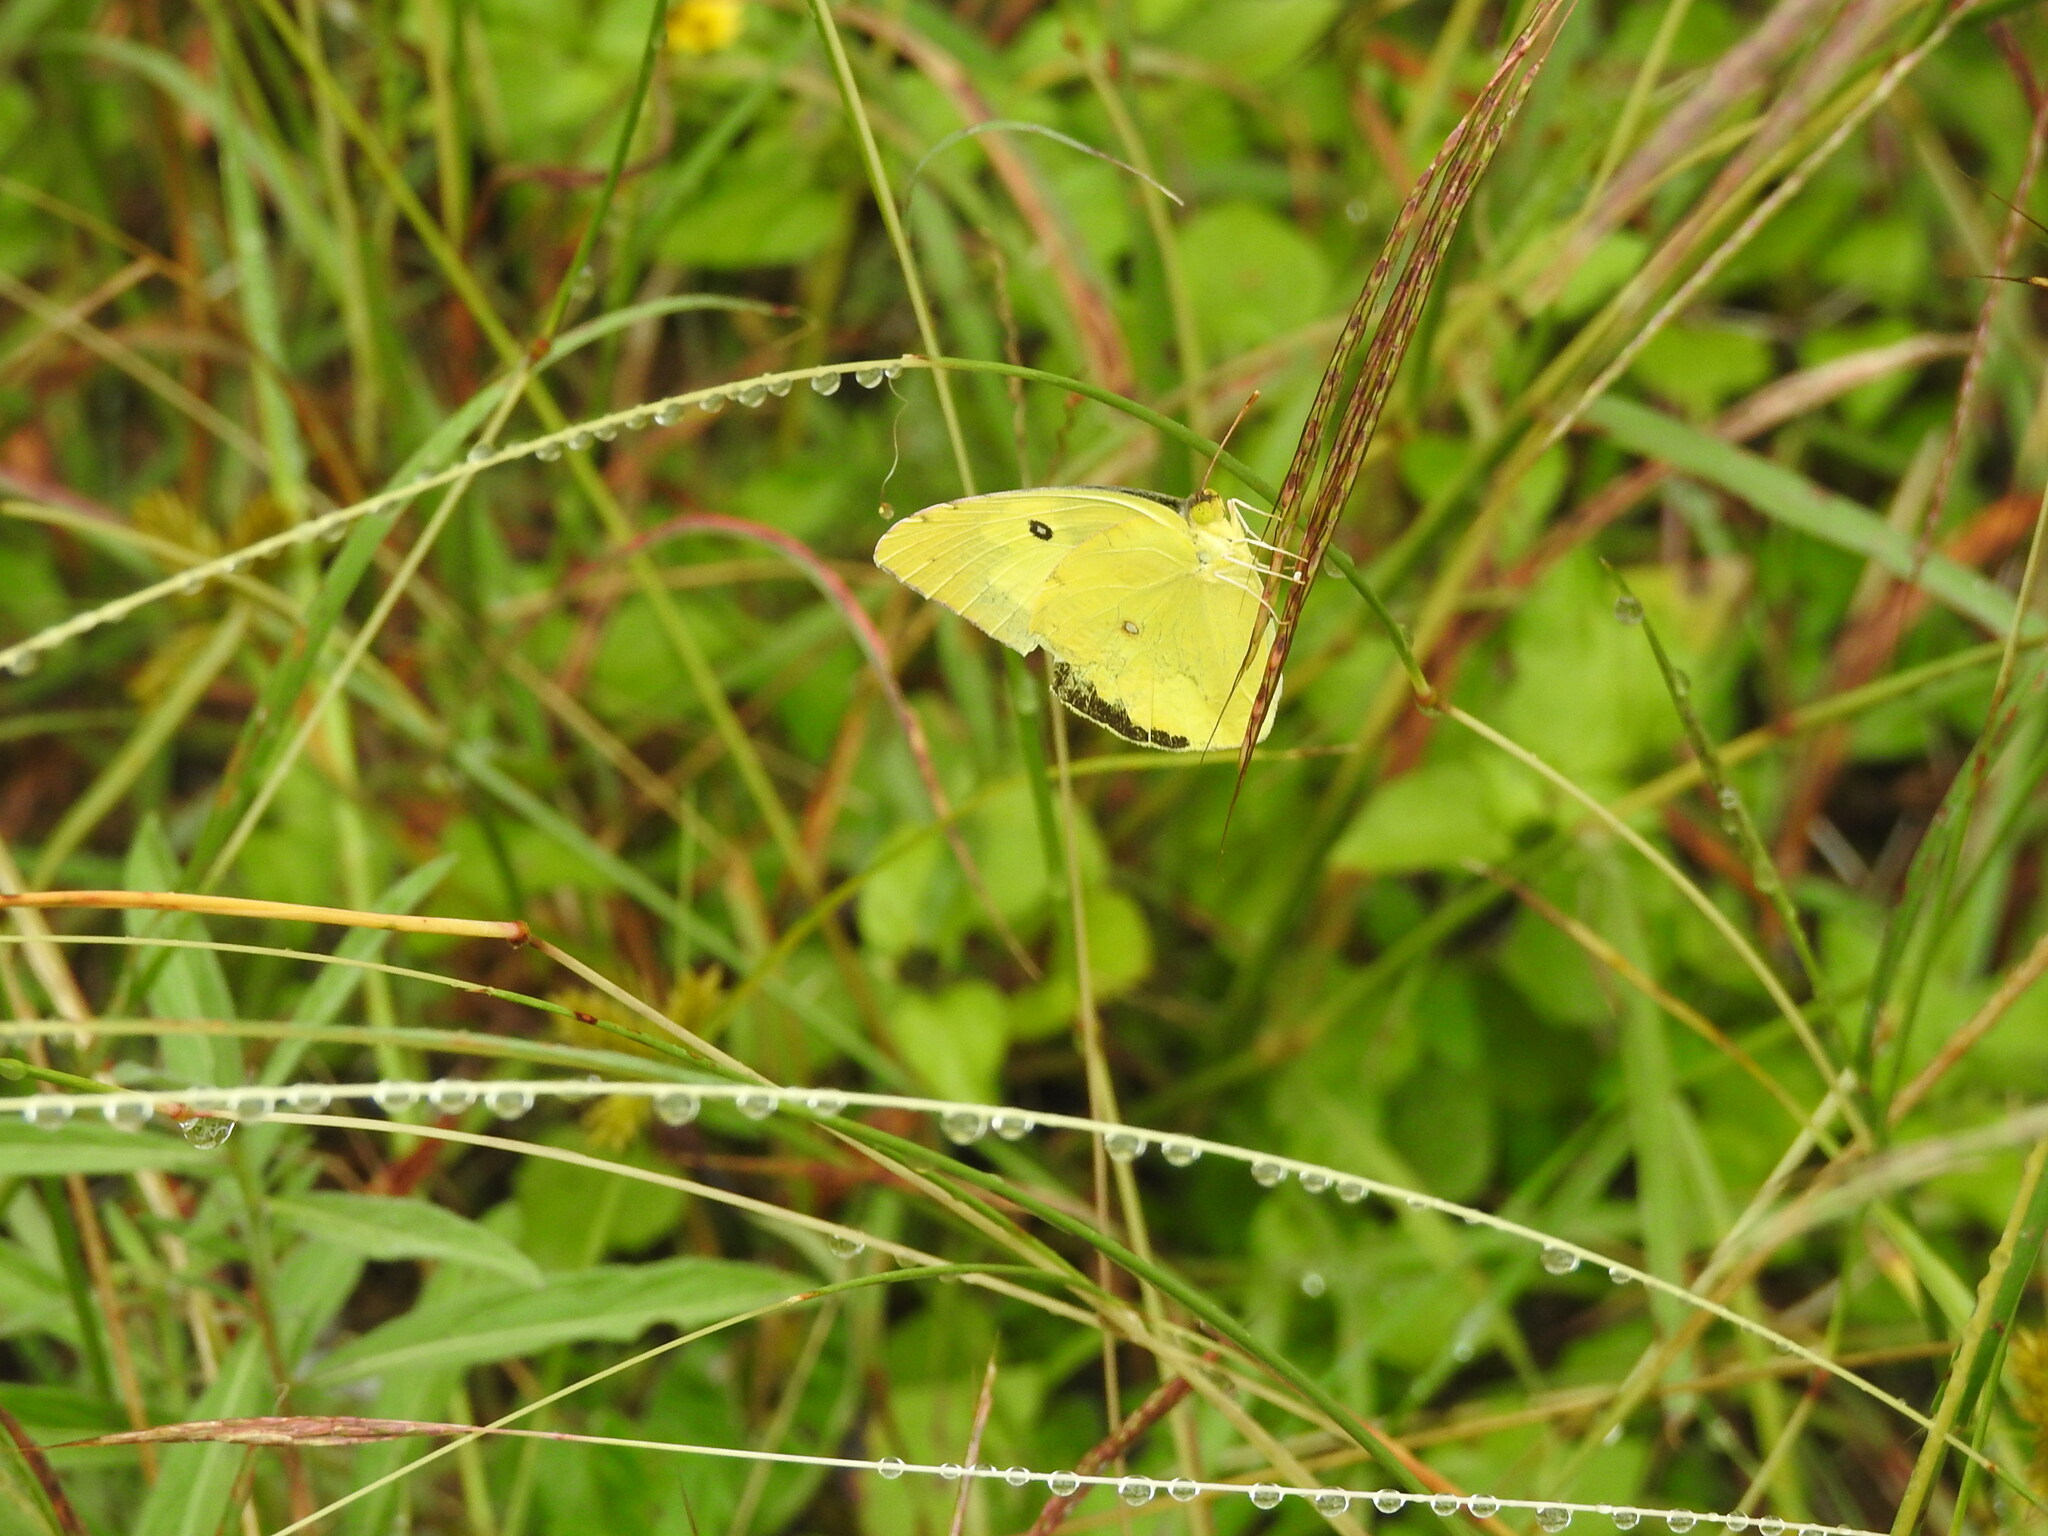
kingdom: Animalia
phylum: Arthropoda
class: Insecta
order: Lepidoptera
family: Pieridae
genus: Zerene
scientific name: Zerene cesonia
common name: Southern dogface
